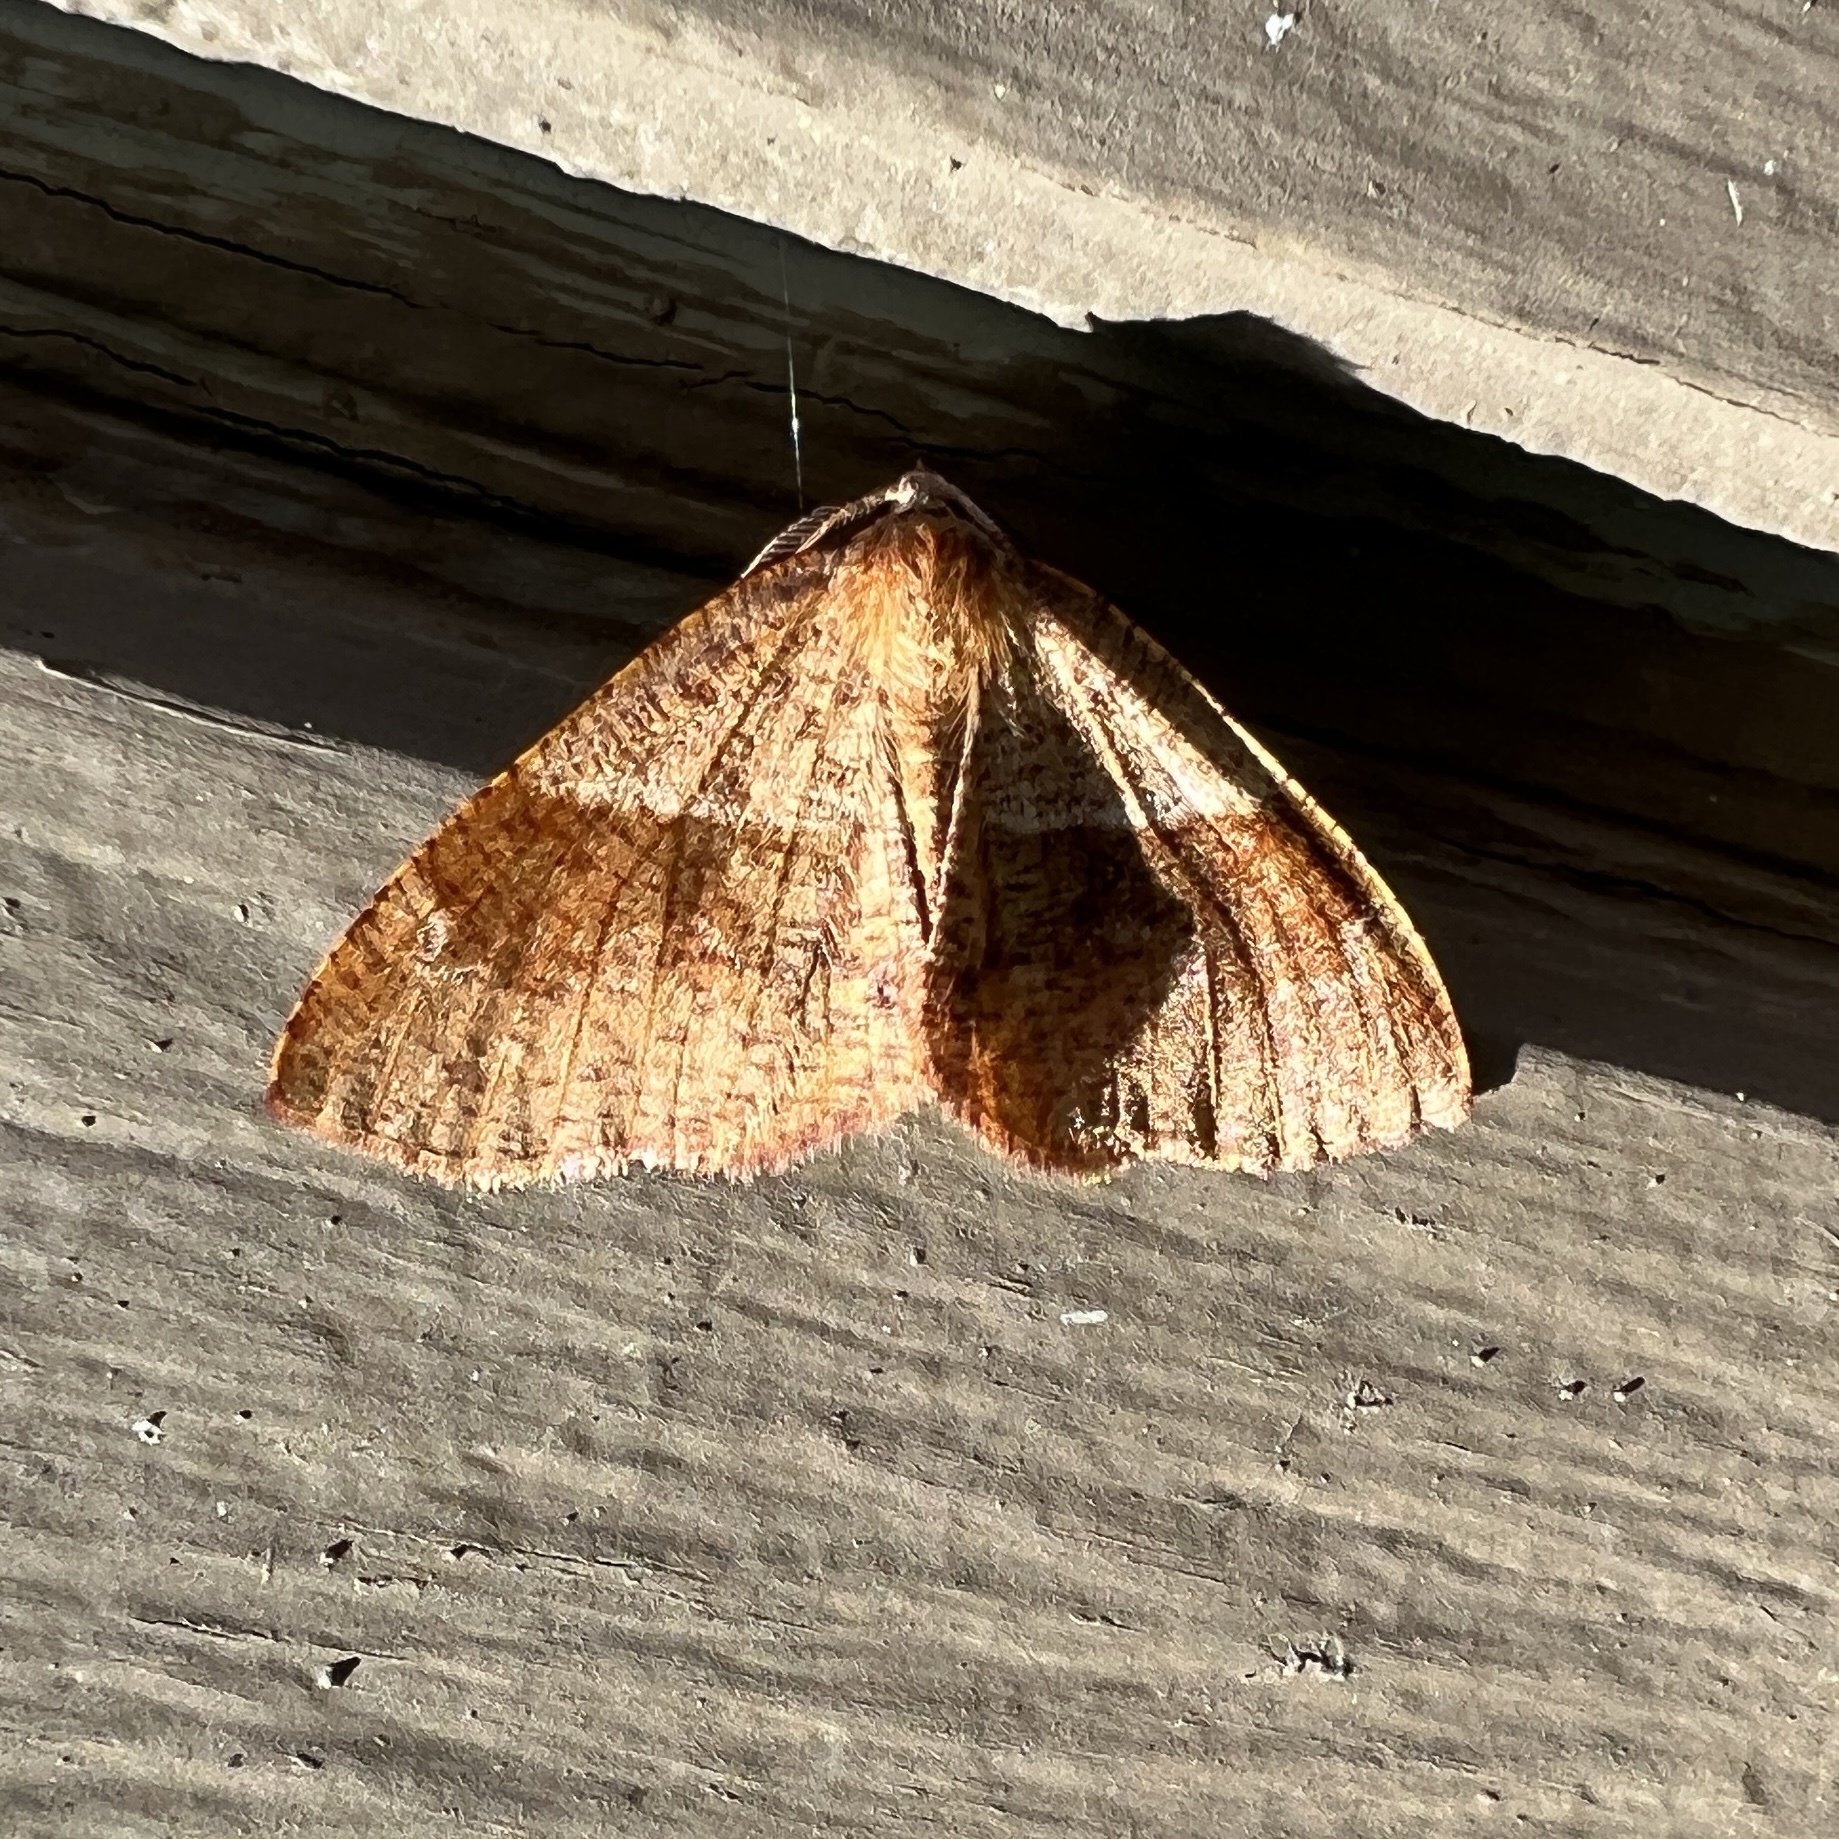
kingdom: Animalia
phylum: Arthropoda
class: Insecta
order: Lepidoptera
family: Geometridae
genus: Plagodis
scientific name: Plagodis pulveraria
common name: Barred umber
